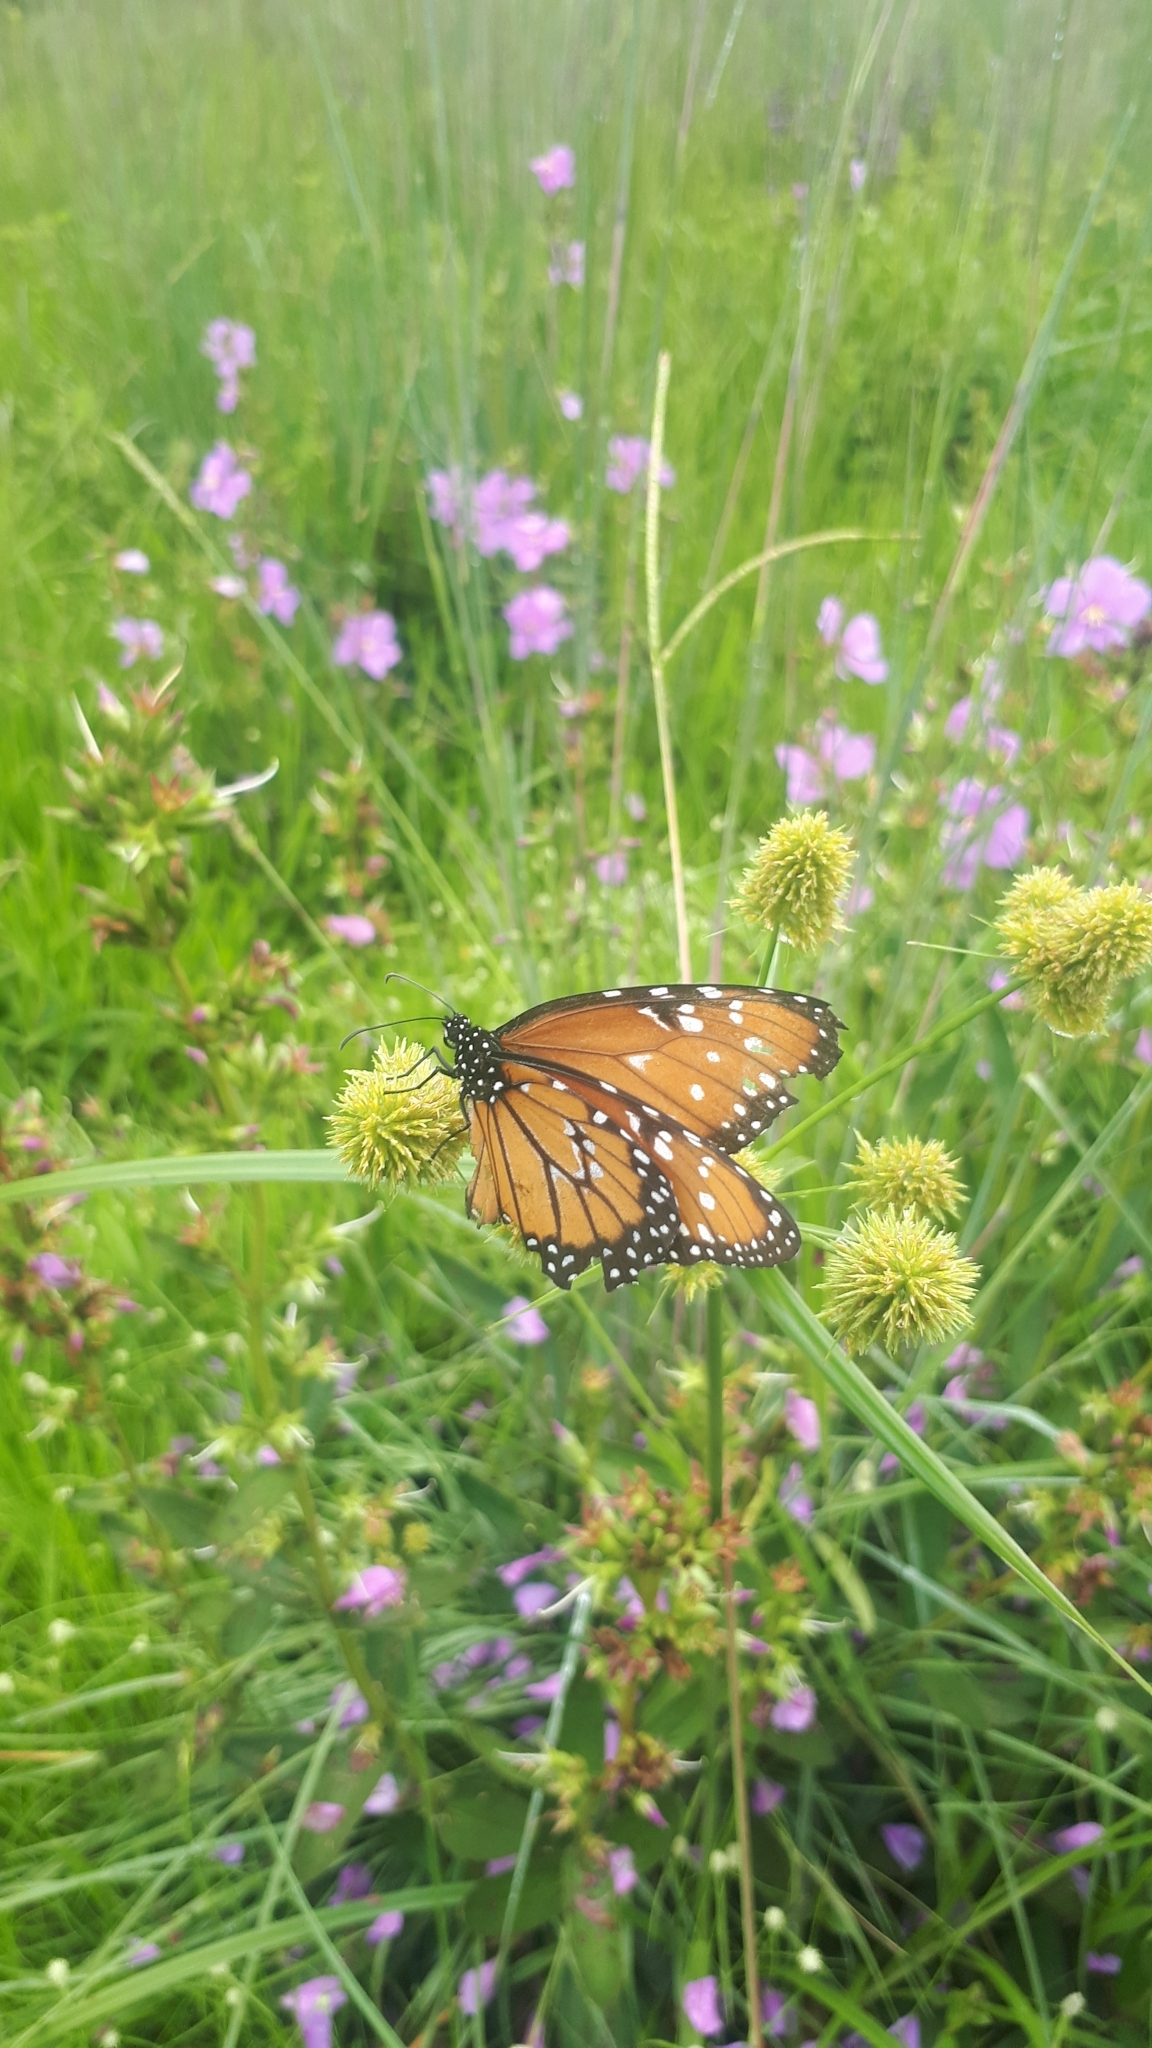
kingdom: Animalia
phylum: Arthropoda
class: Insecta
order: Lepidoptera
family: Nymphalidae
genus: Danaus
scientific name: Danaus gilippus
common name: Queen
